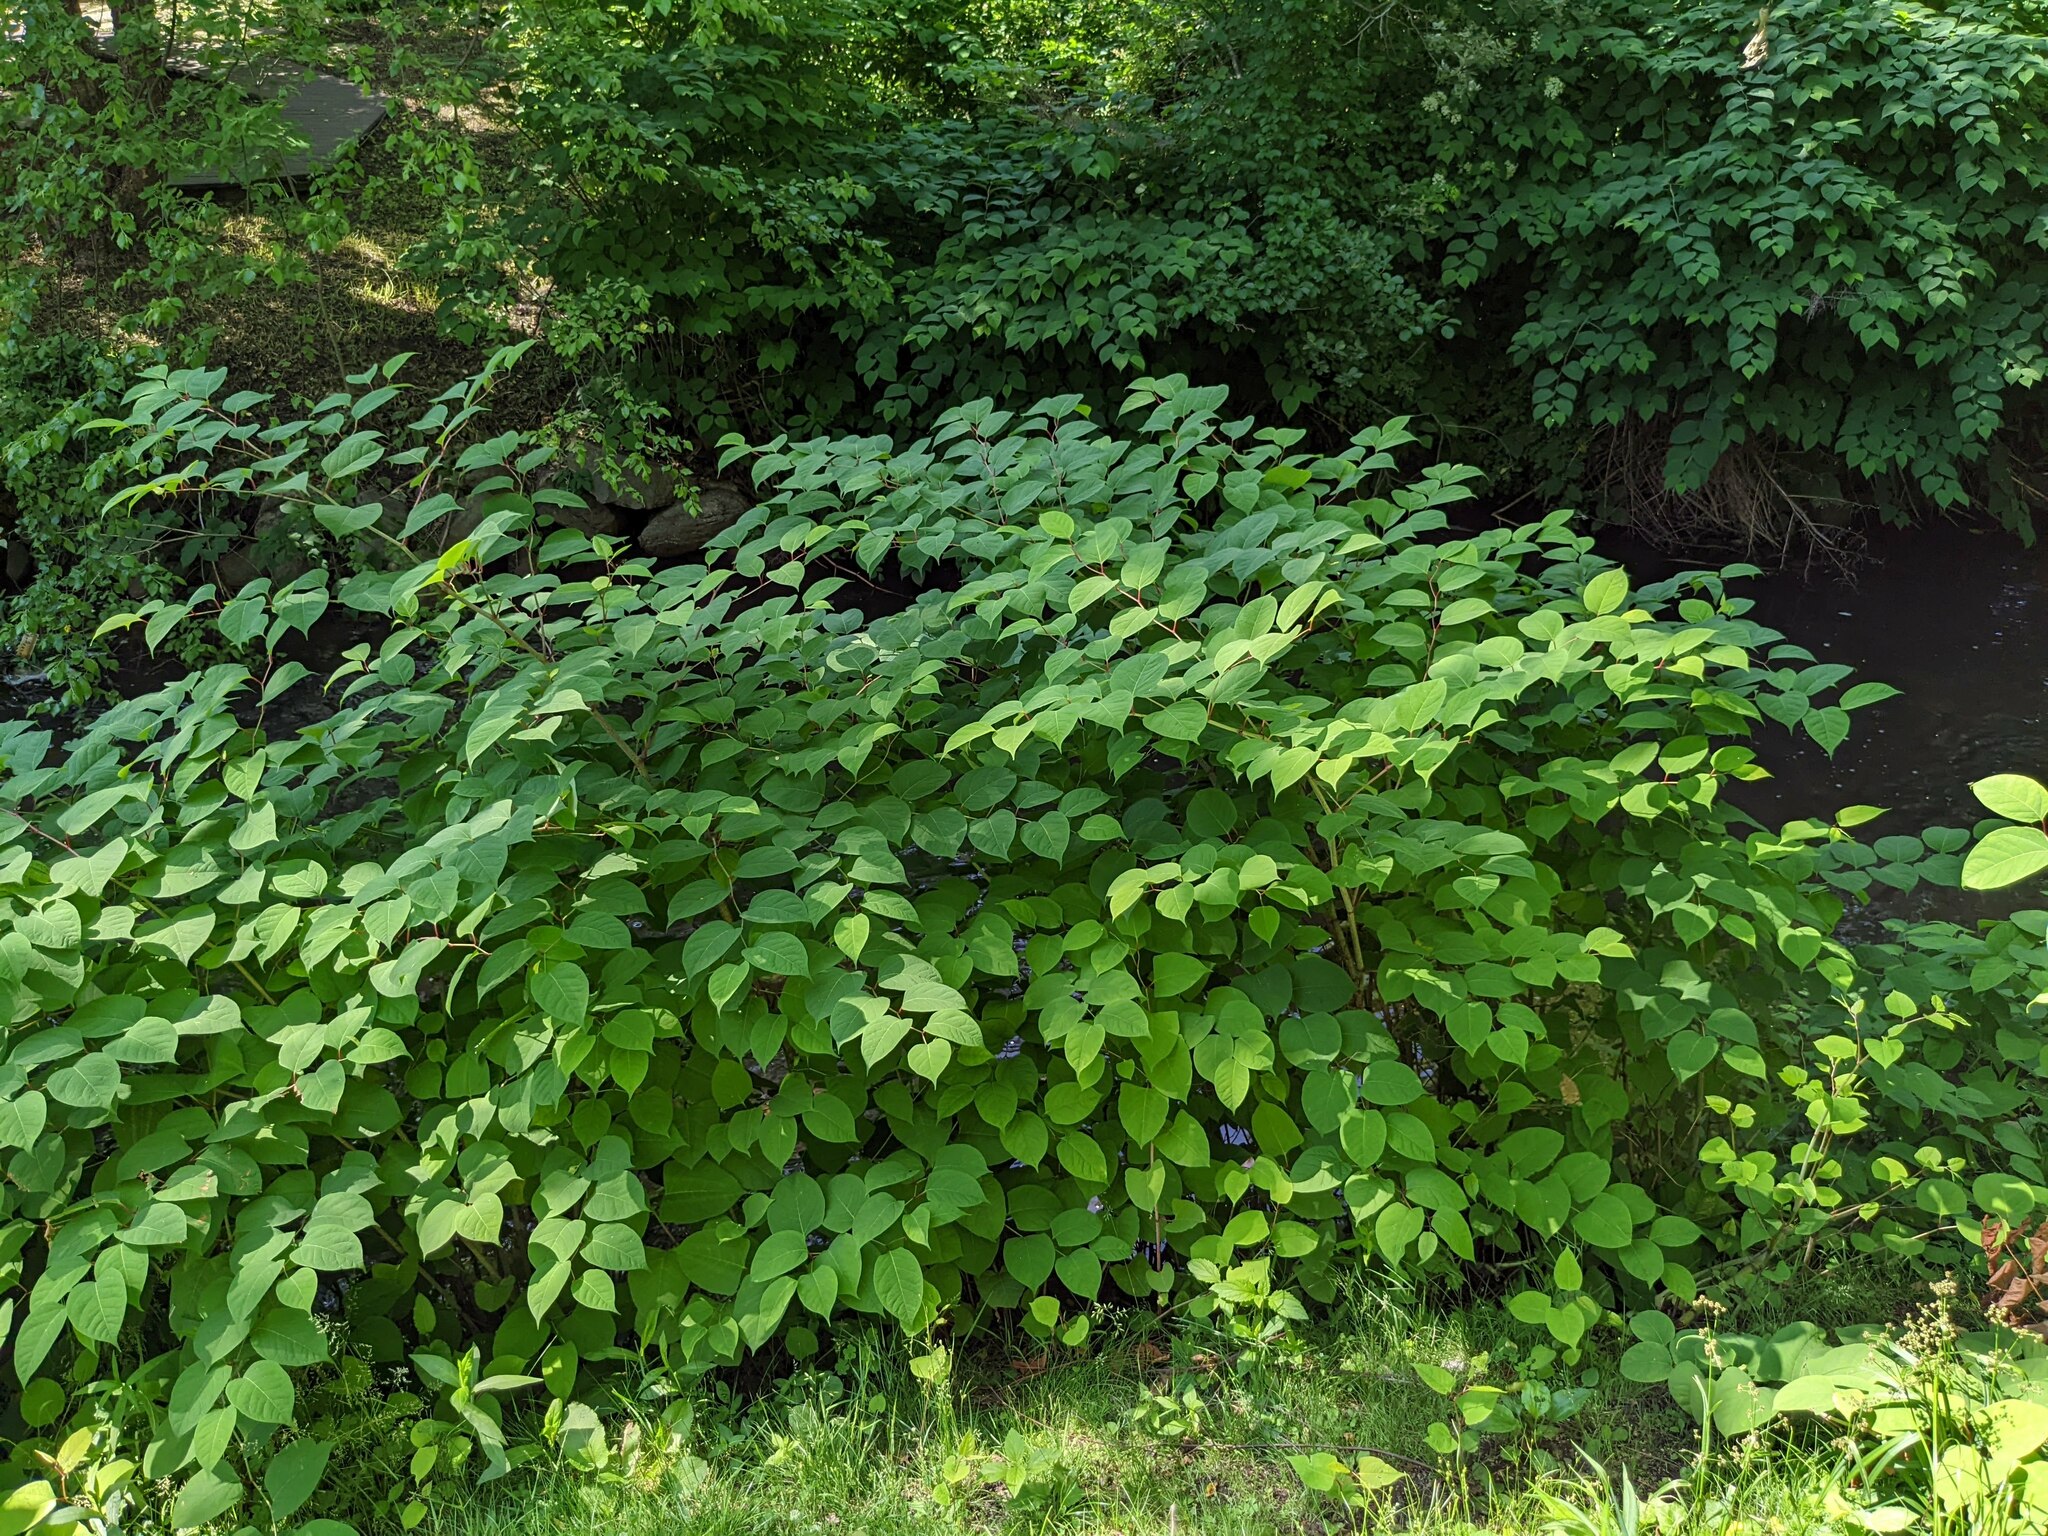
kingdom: Plantae
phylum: Tracheophyta
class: Magnoliopsida
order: Caryophyllales
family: Polygonaceae
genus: Reynoutria
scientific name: Reynoutria japonica
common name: Japanese knotweed
